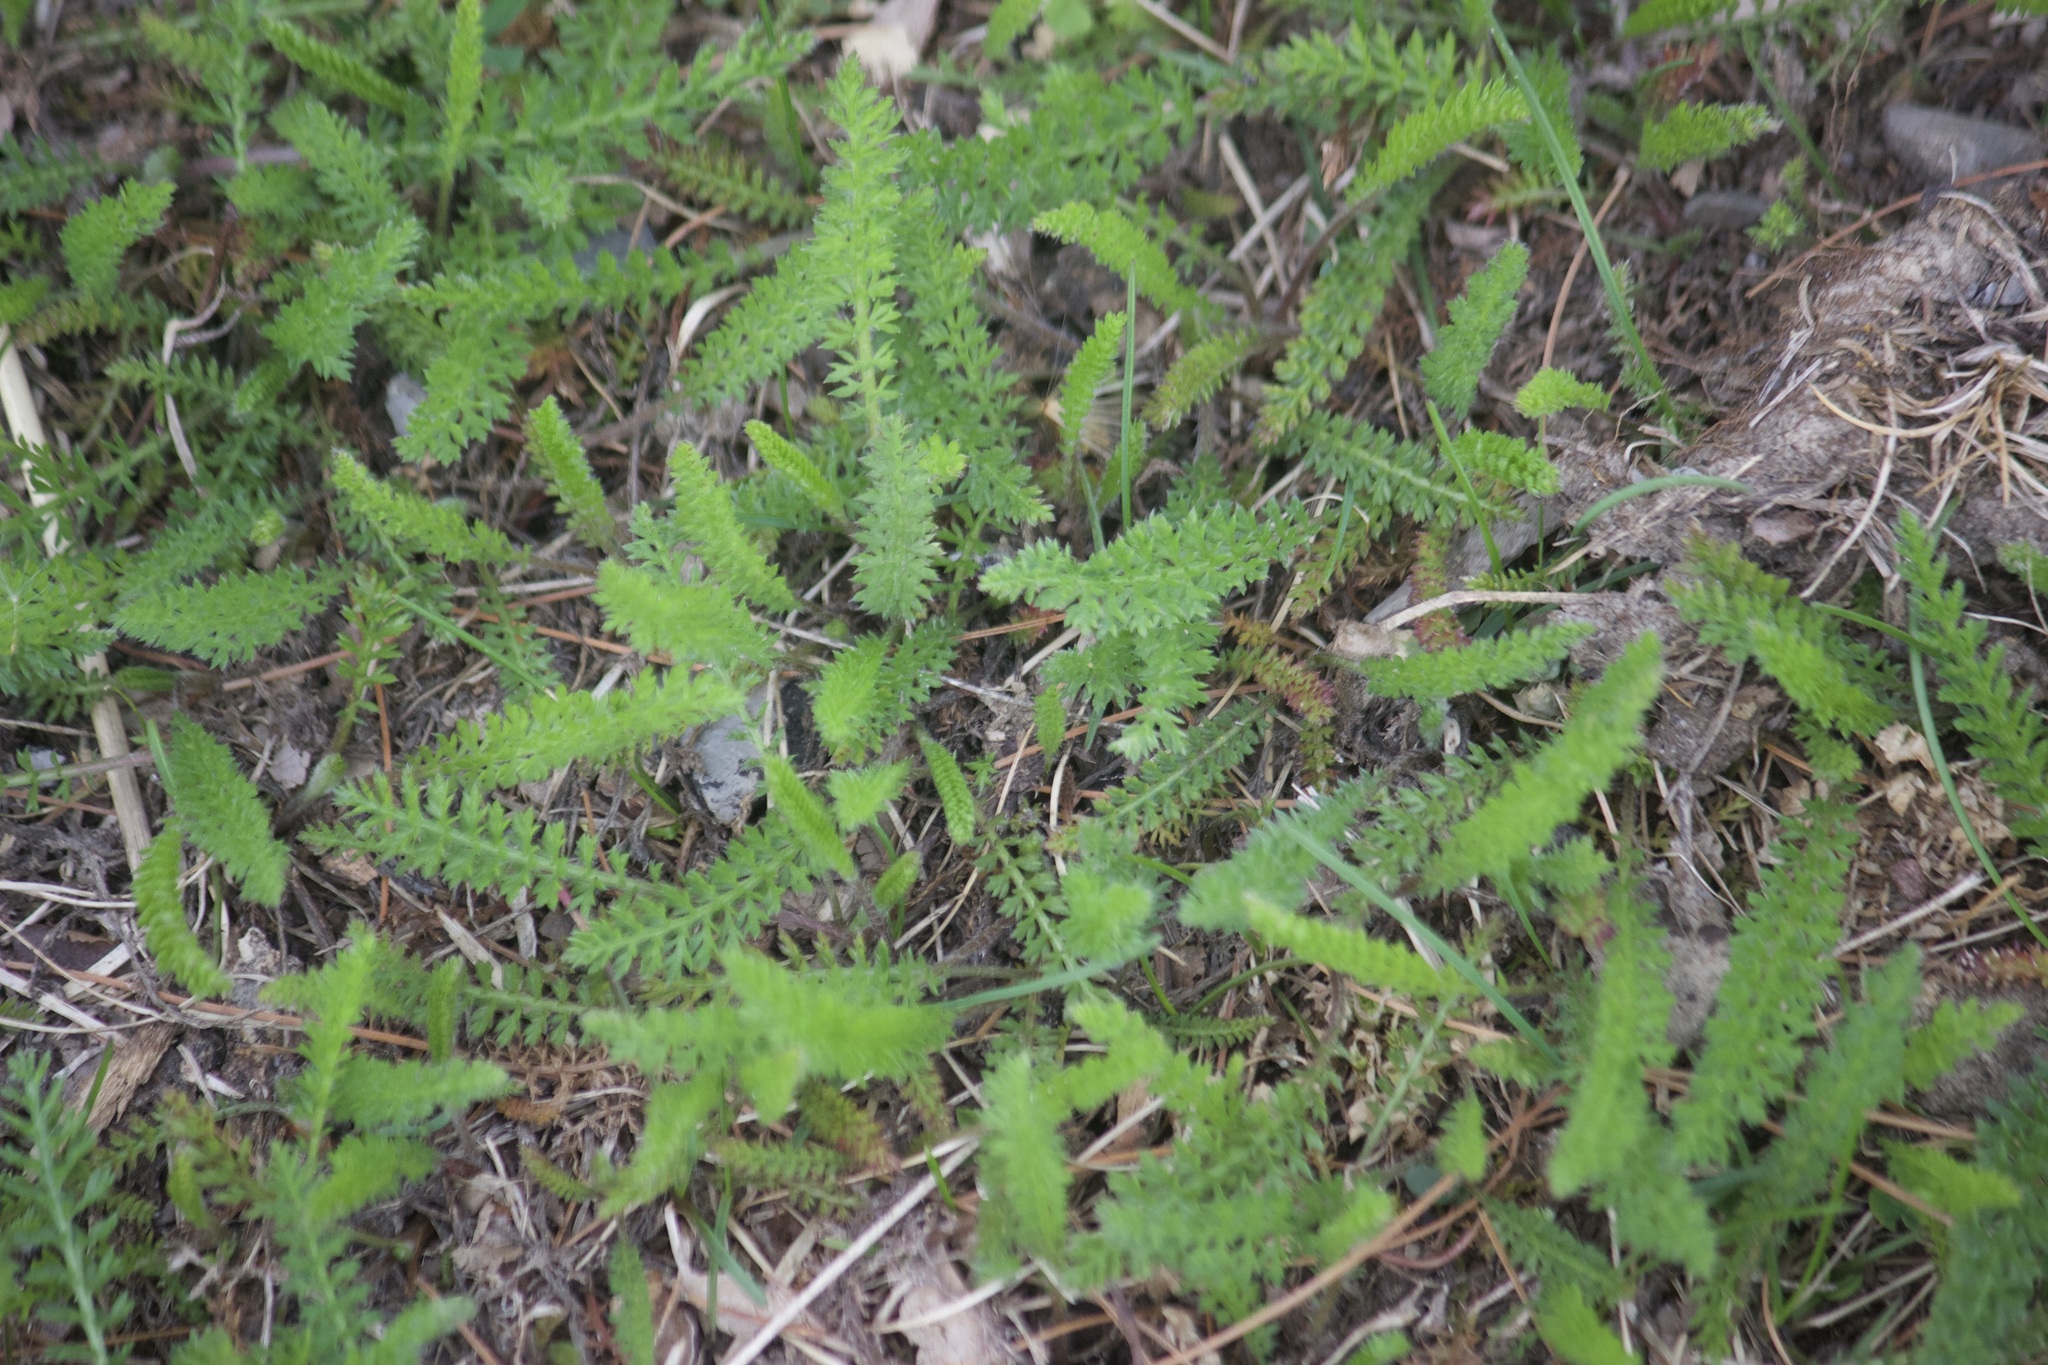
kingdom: Plantae
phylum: Tracheophyta
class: Magnoliopsida
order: Asterales
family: Asteraceae
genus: Achillea
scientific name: Achillea millefolium
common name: Yarrow
